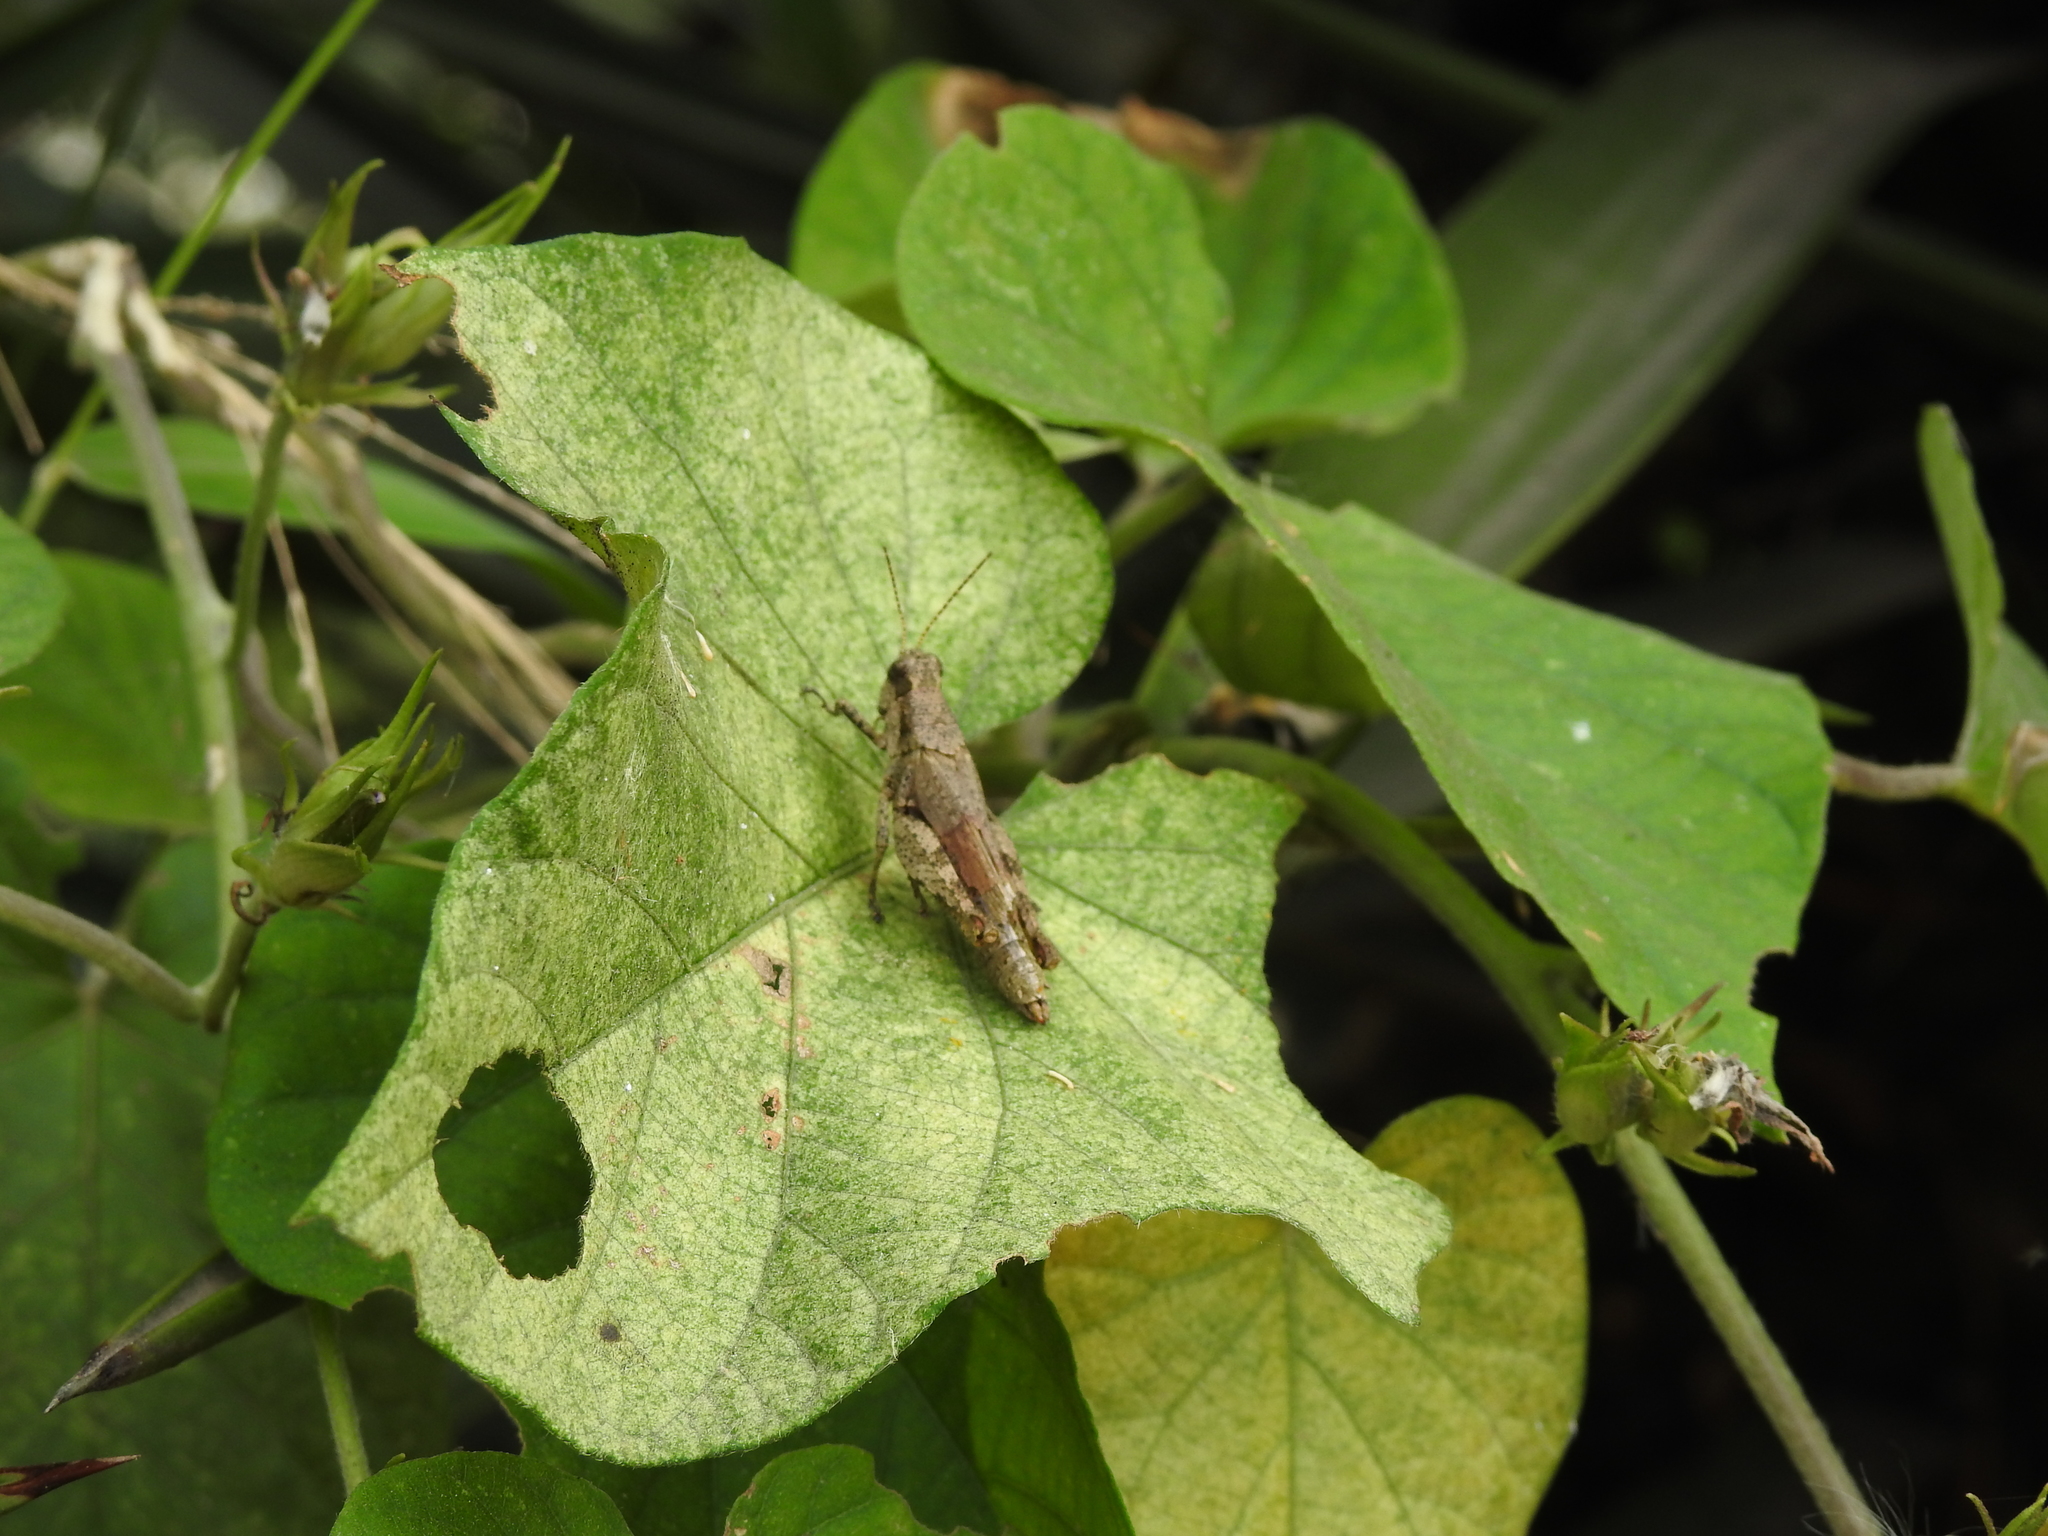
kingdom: Animalia
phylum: Arthropoda
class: Insecta
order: Orthoptera
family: Acrididae
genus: Ronderosia
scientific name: Ronderosia bergii
